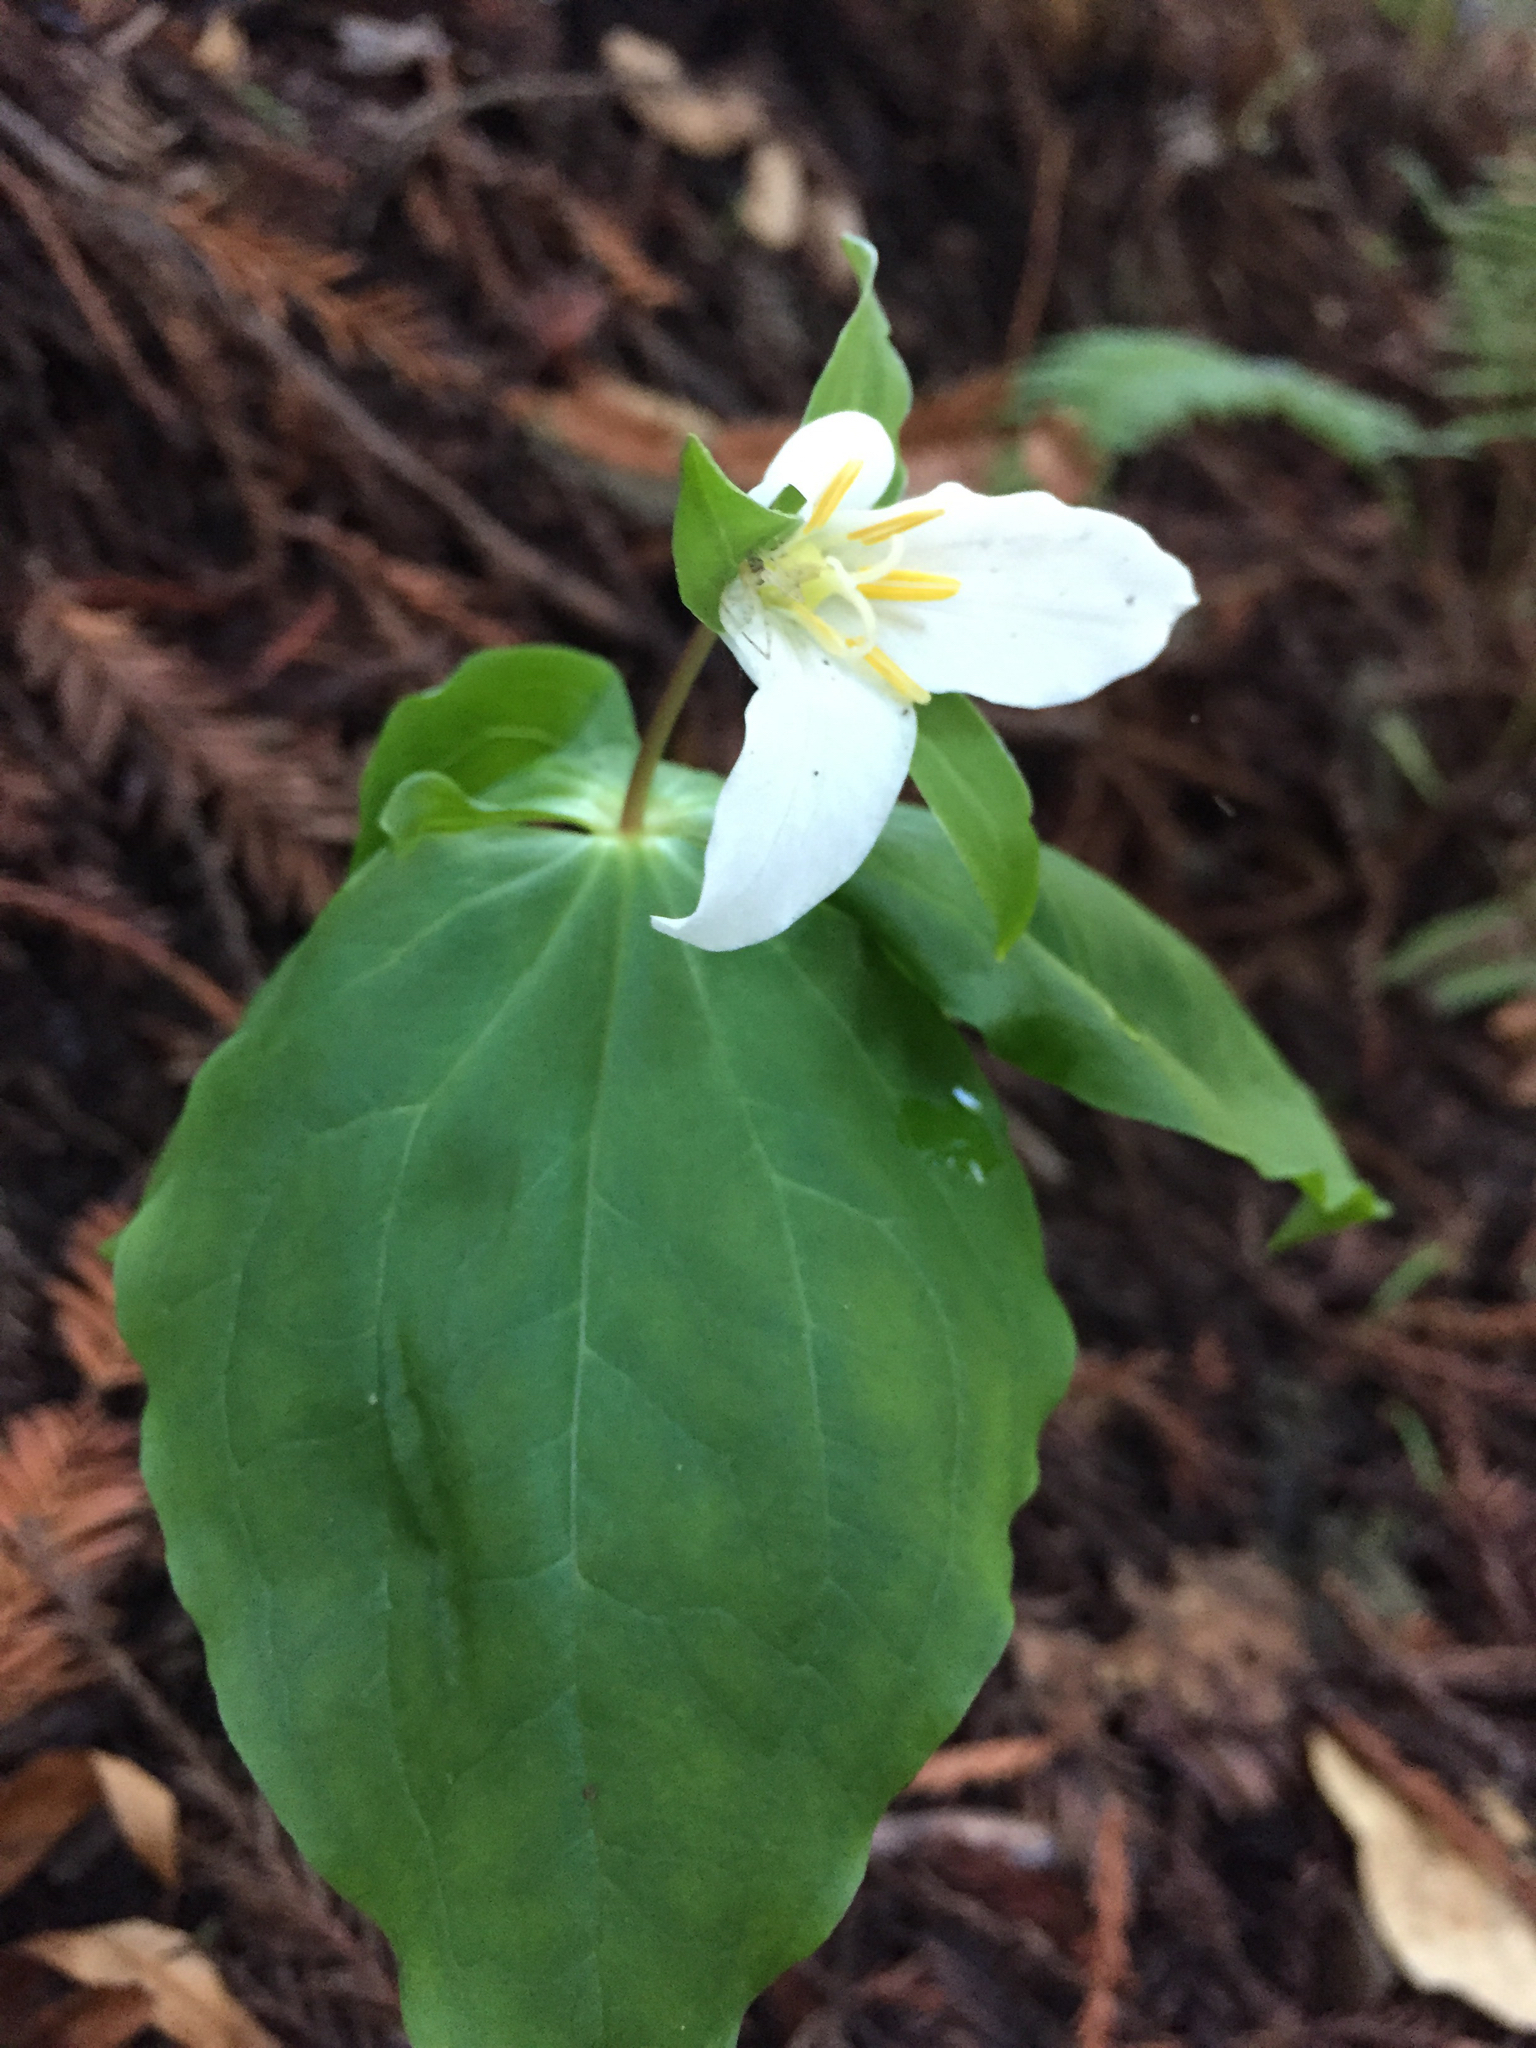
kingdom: Plantae
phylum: Tracheophyta
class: Liliopsida
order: Liliales
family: Melanthiaceae
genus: Trillium
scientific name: Trillium ovatum
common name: Pacific trillium
